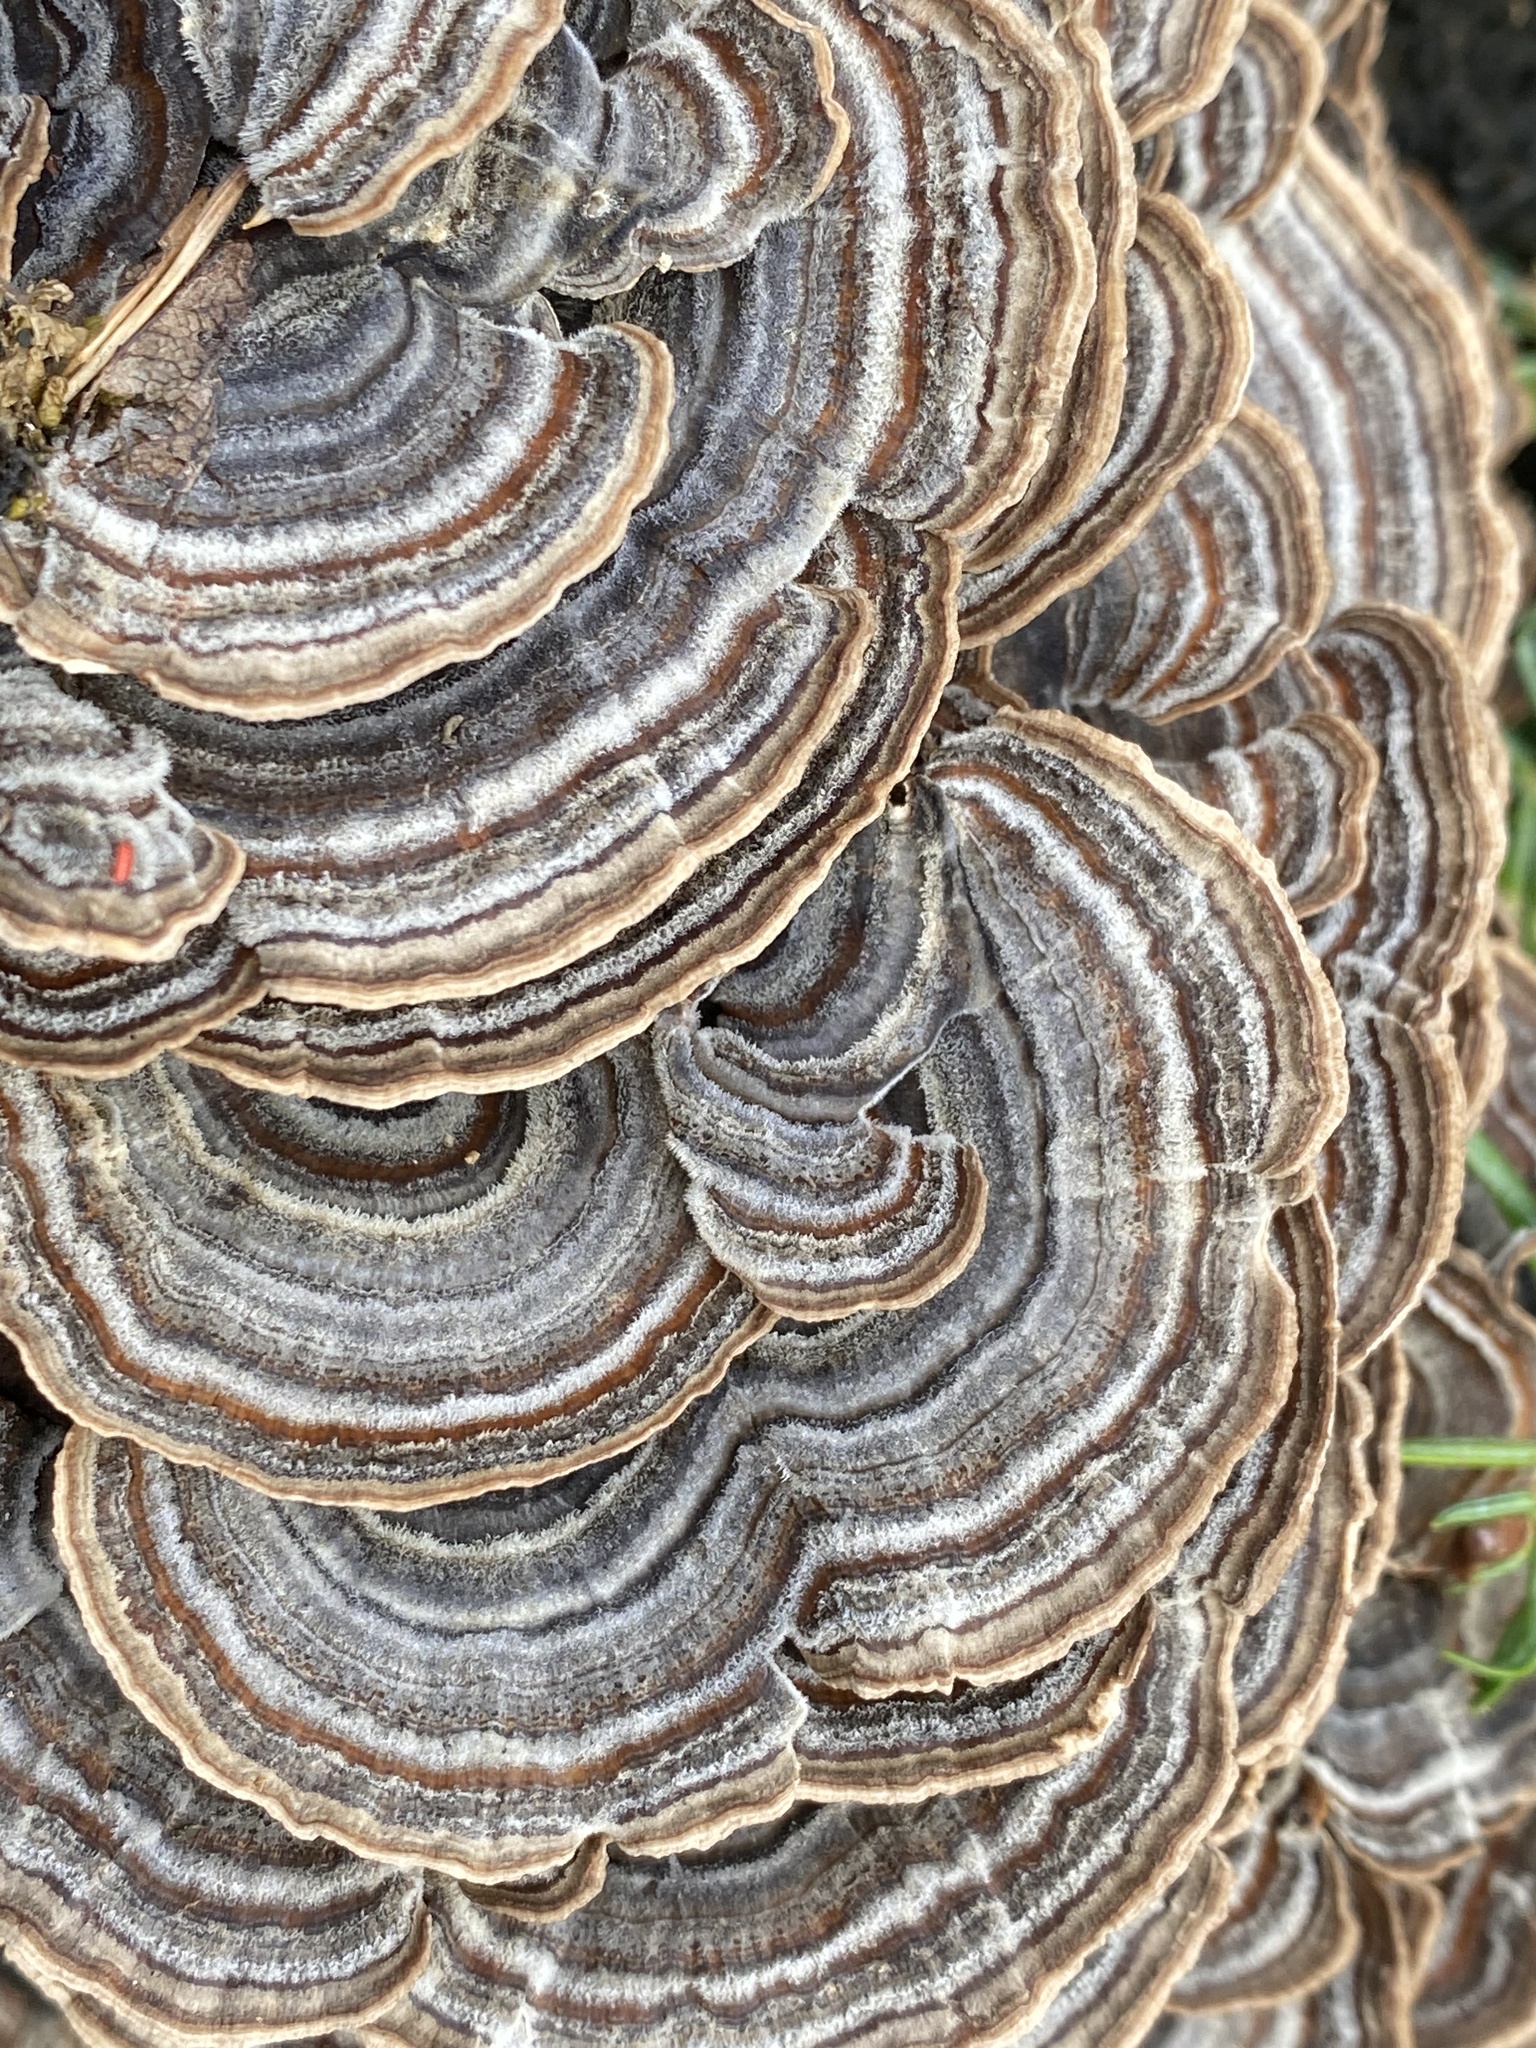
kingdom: Fungi
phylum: Basidiomycota
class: Agaricomycetes
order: Polyporales
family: Polyporaceae
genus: Trametes
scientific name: Trametes versicolor
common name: Turkeytail
